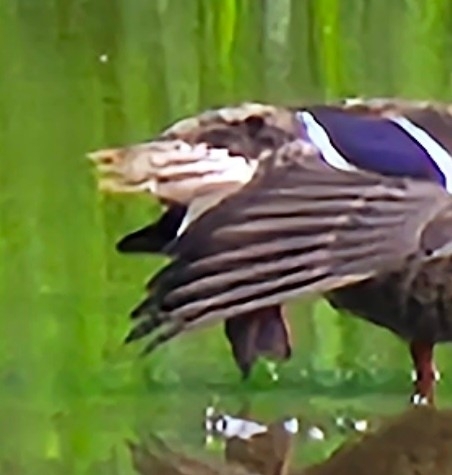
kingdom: Animalia
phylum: Chordata
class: Aves
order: Anseriformes
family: Anatidae
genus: Anas
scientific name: Anas platyrhynchos
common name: Mallard
